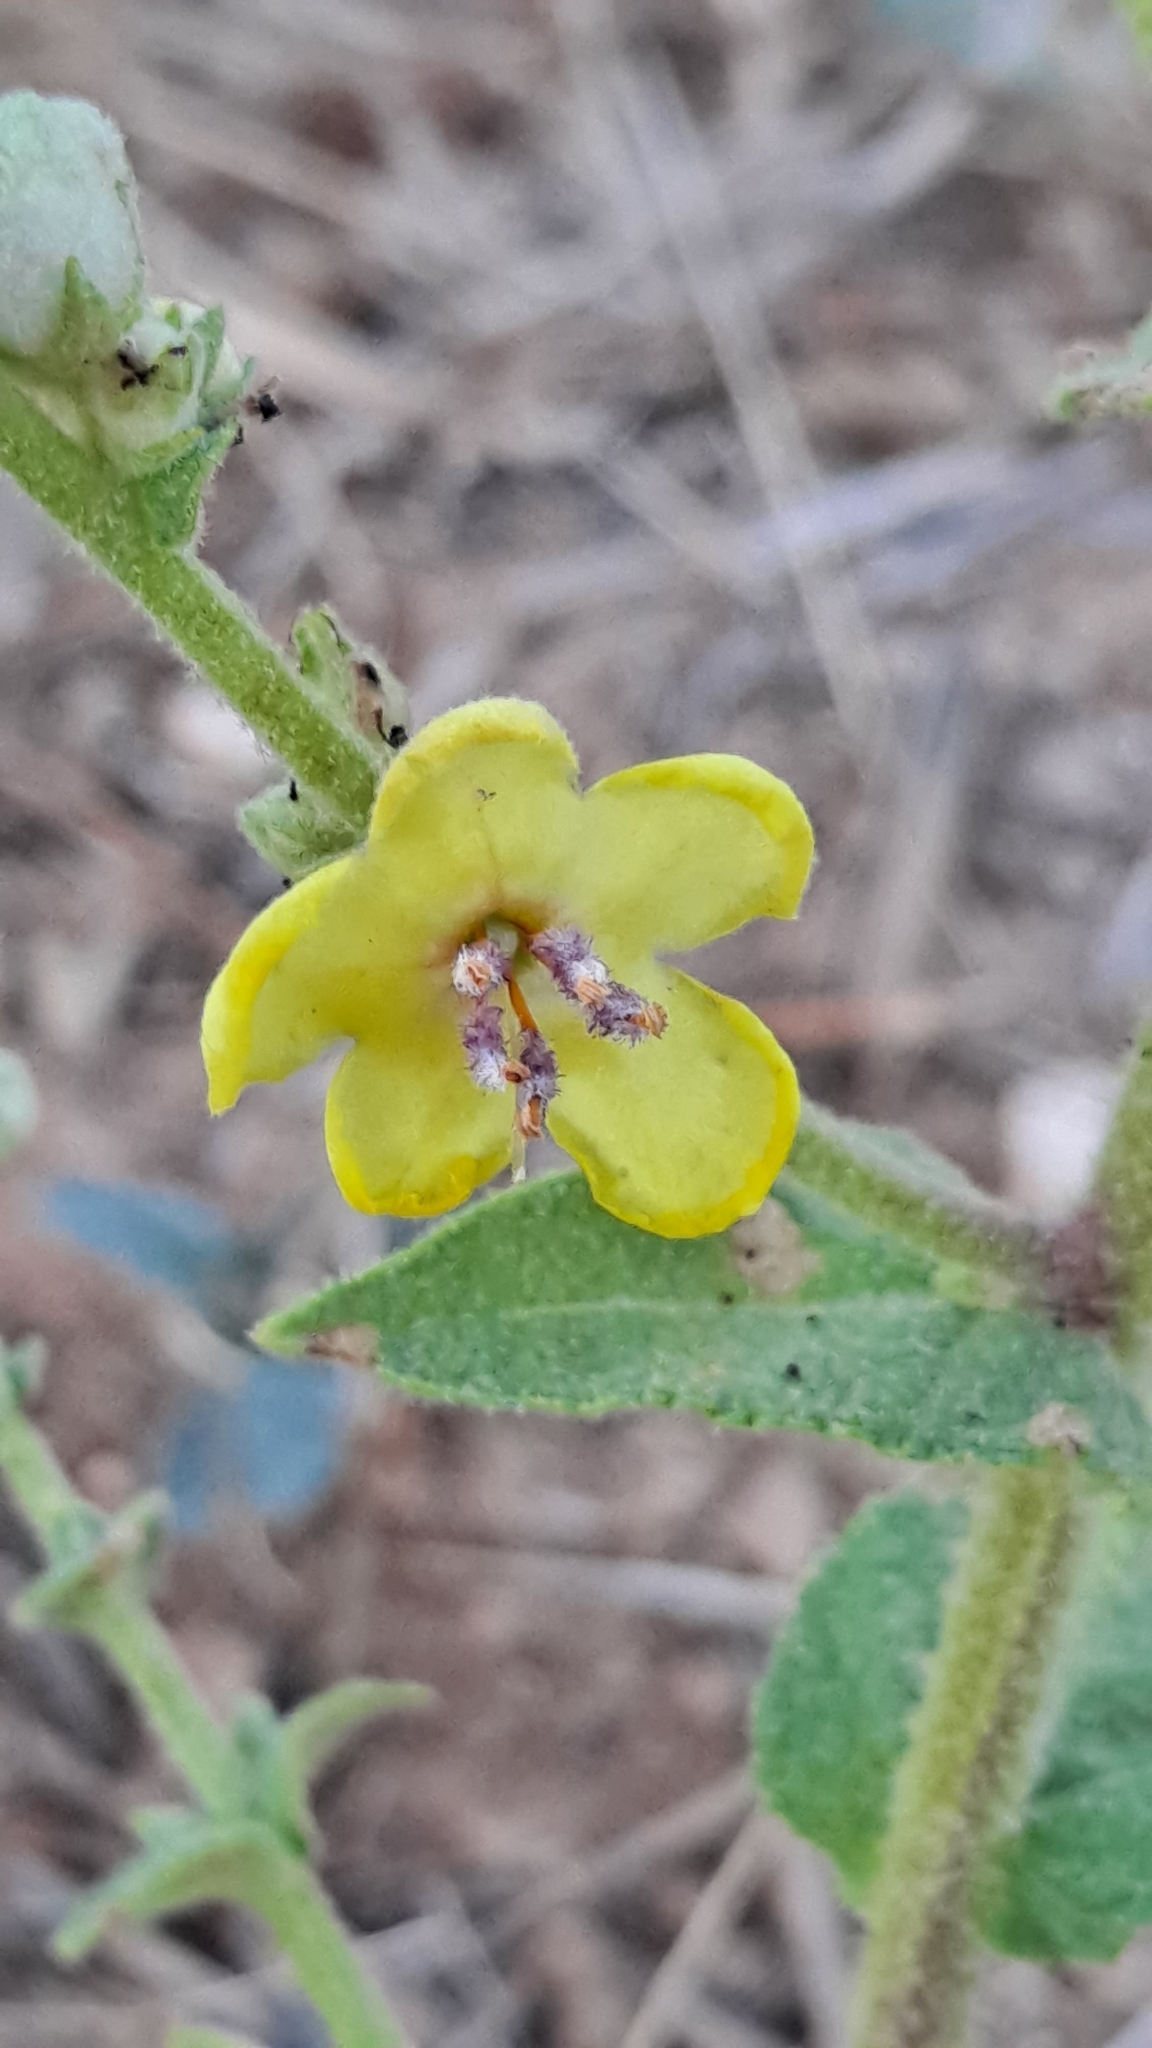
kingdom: Plantae
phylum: Tracheophyta
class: Magnoliopsida
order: Lamiales
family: Scrophulariaceae
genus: Verbascum
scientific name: Verbascum sinuatum
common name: Wavyleaf mullein
